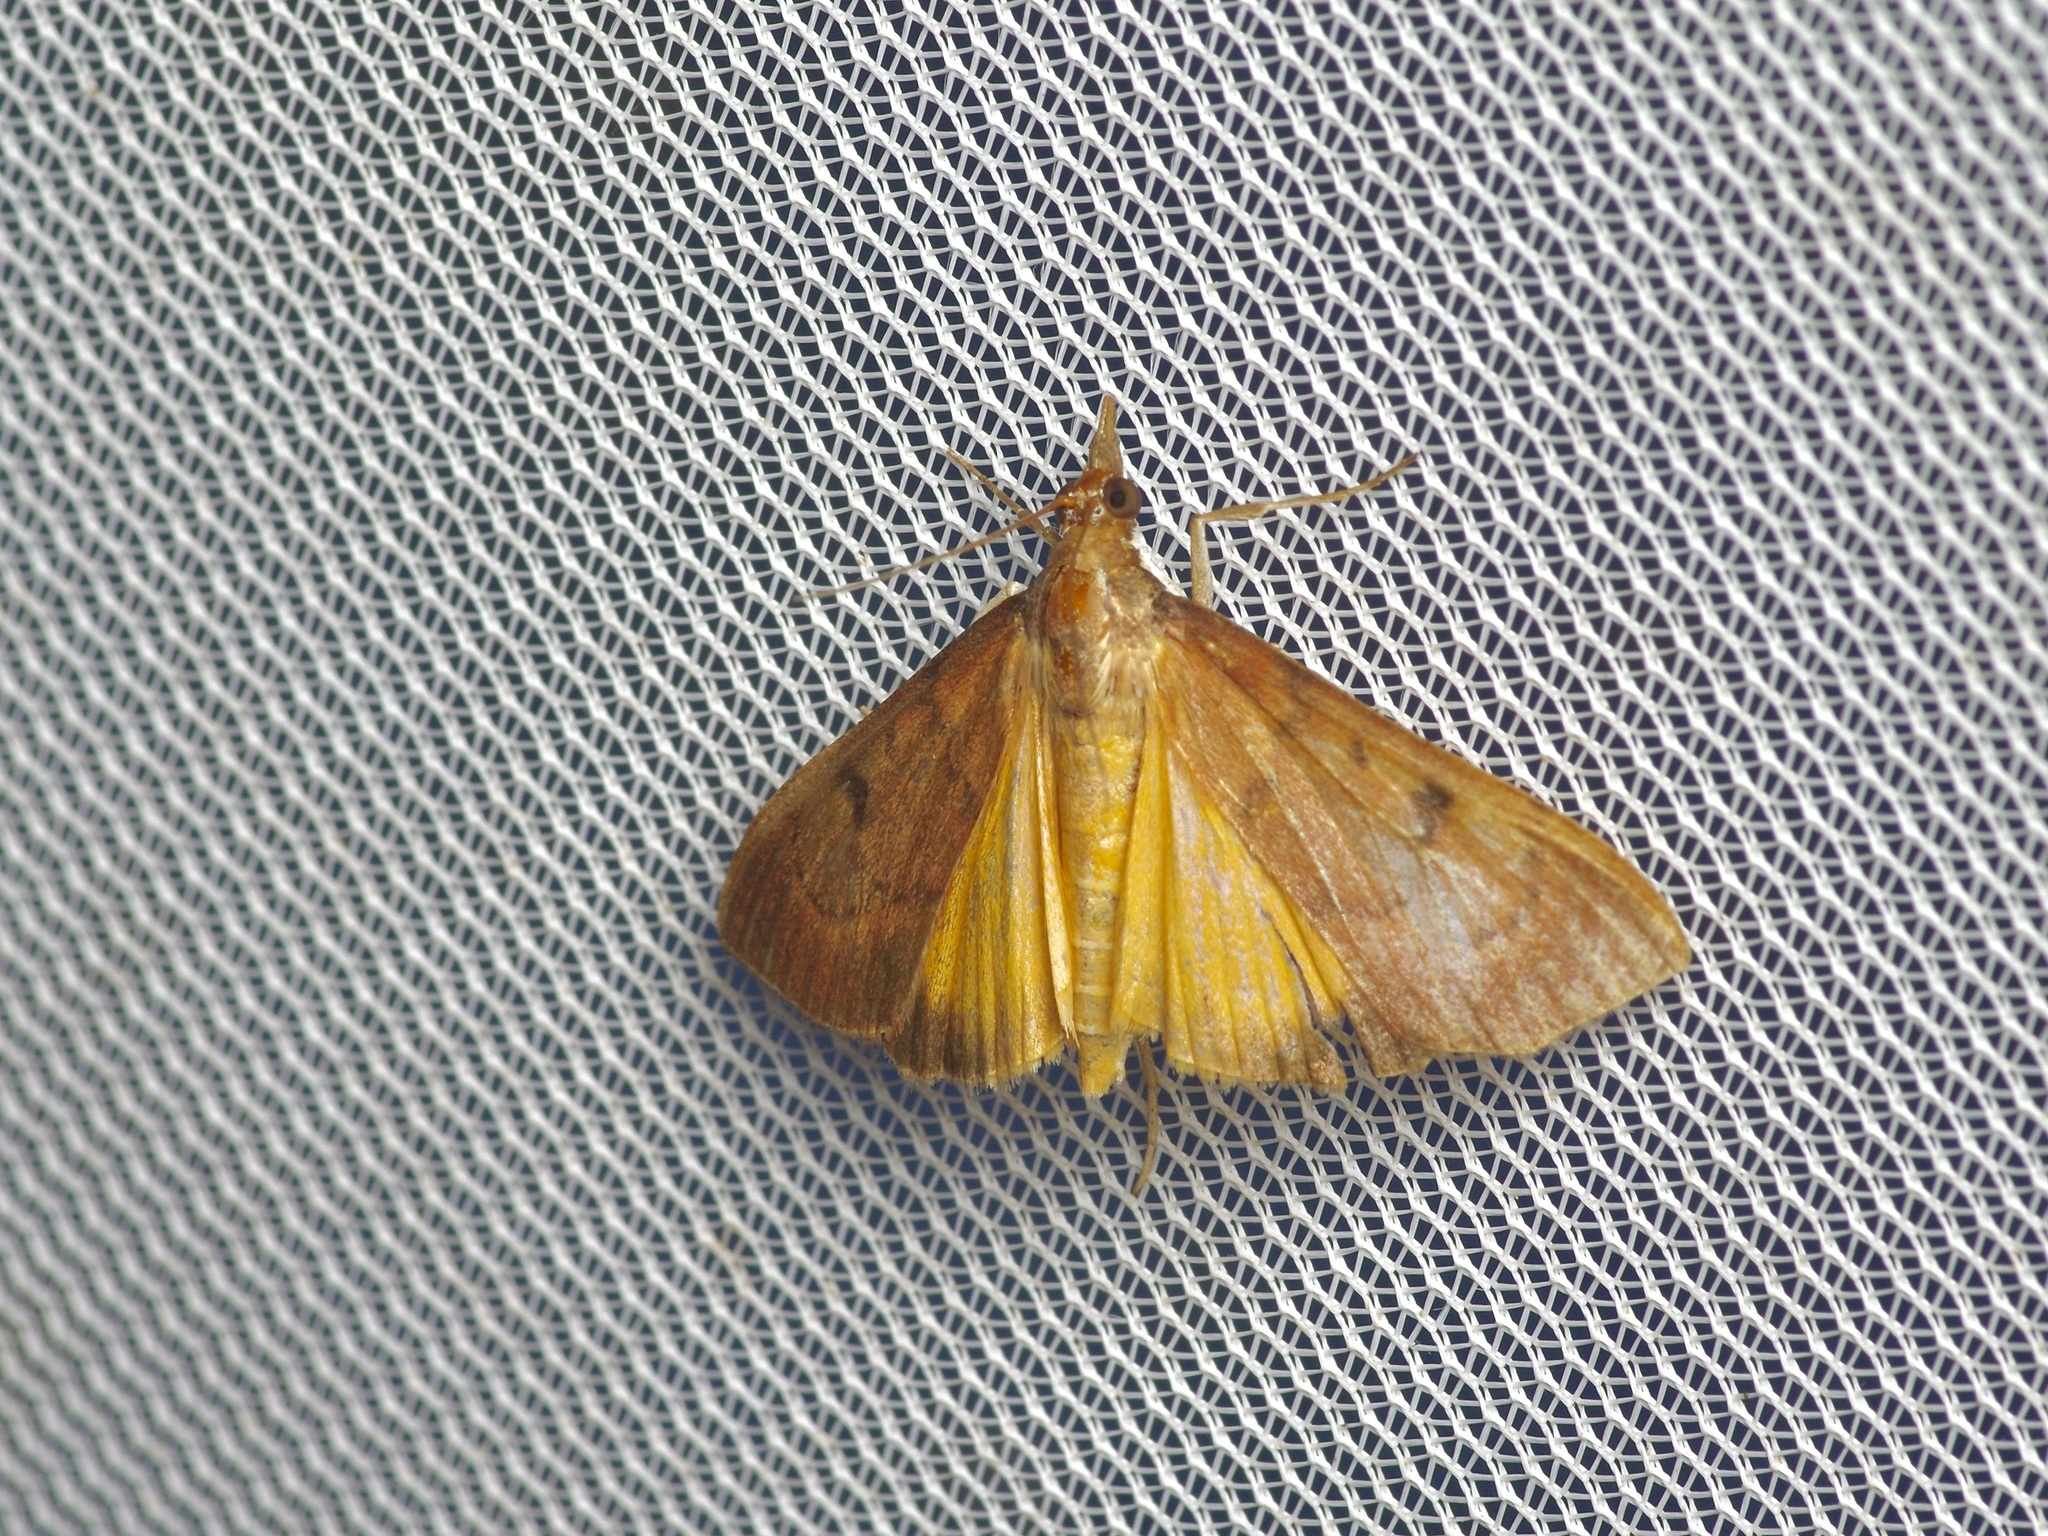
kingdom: Animalia
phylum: Arthropoda
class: Insecta
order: Lepidoptera
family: Crambidae
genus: Uresiphita
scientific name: Uresiphita reversalis
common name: Genista broom moth
